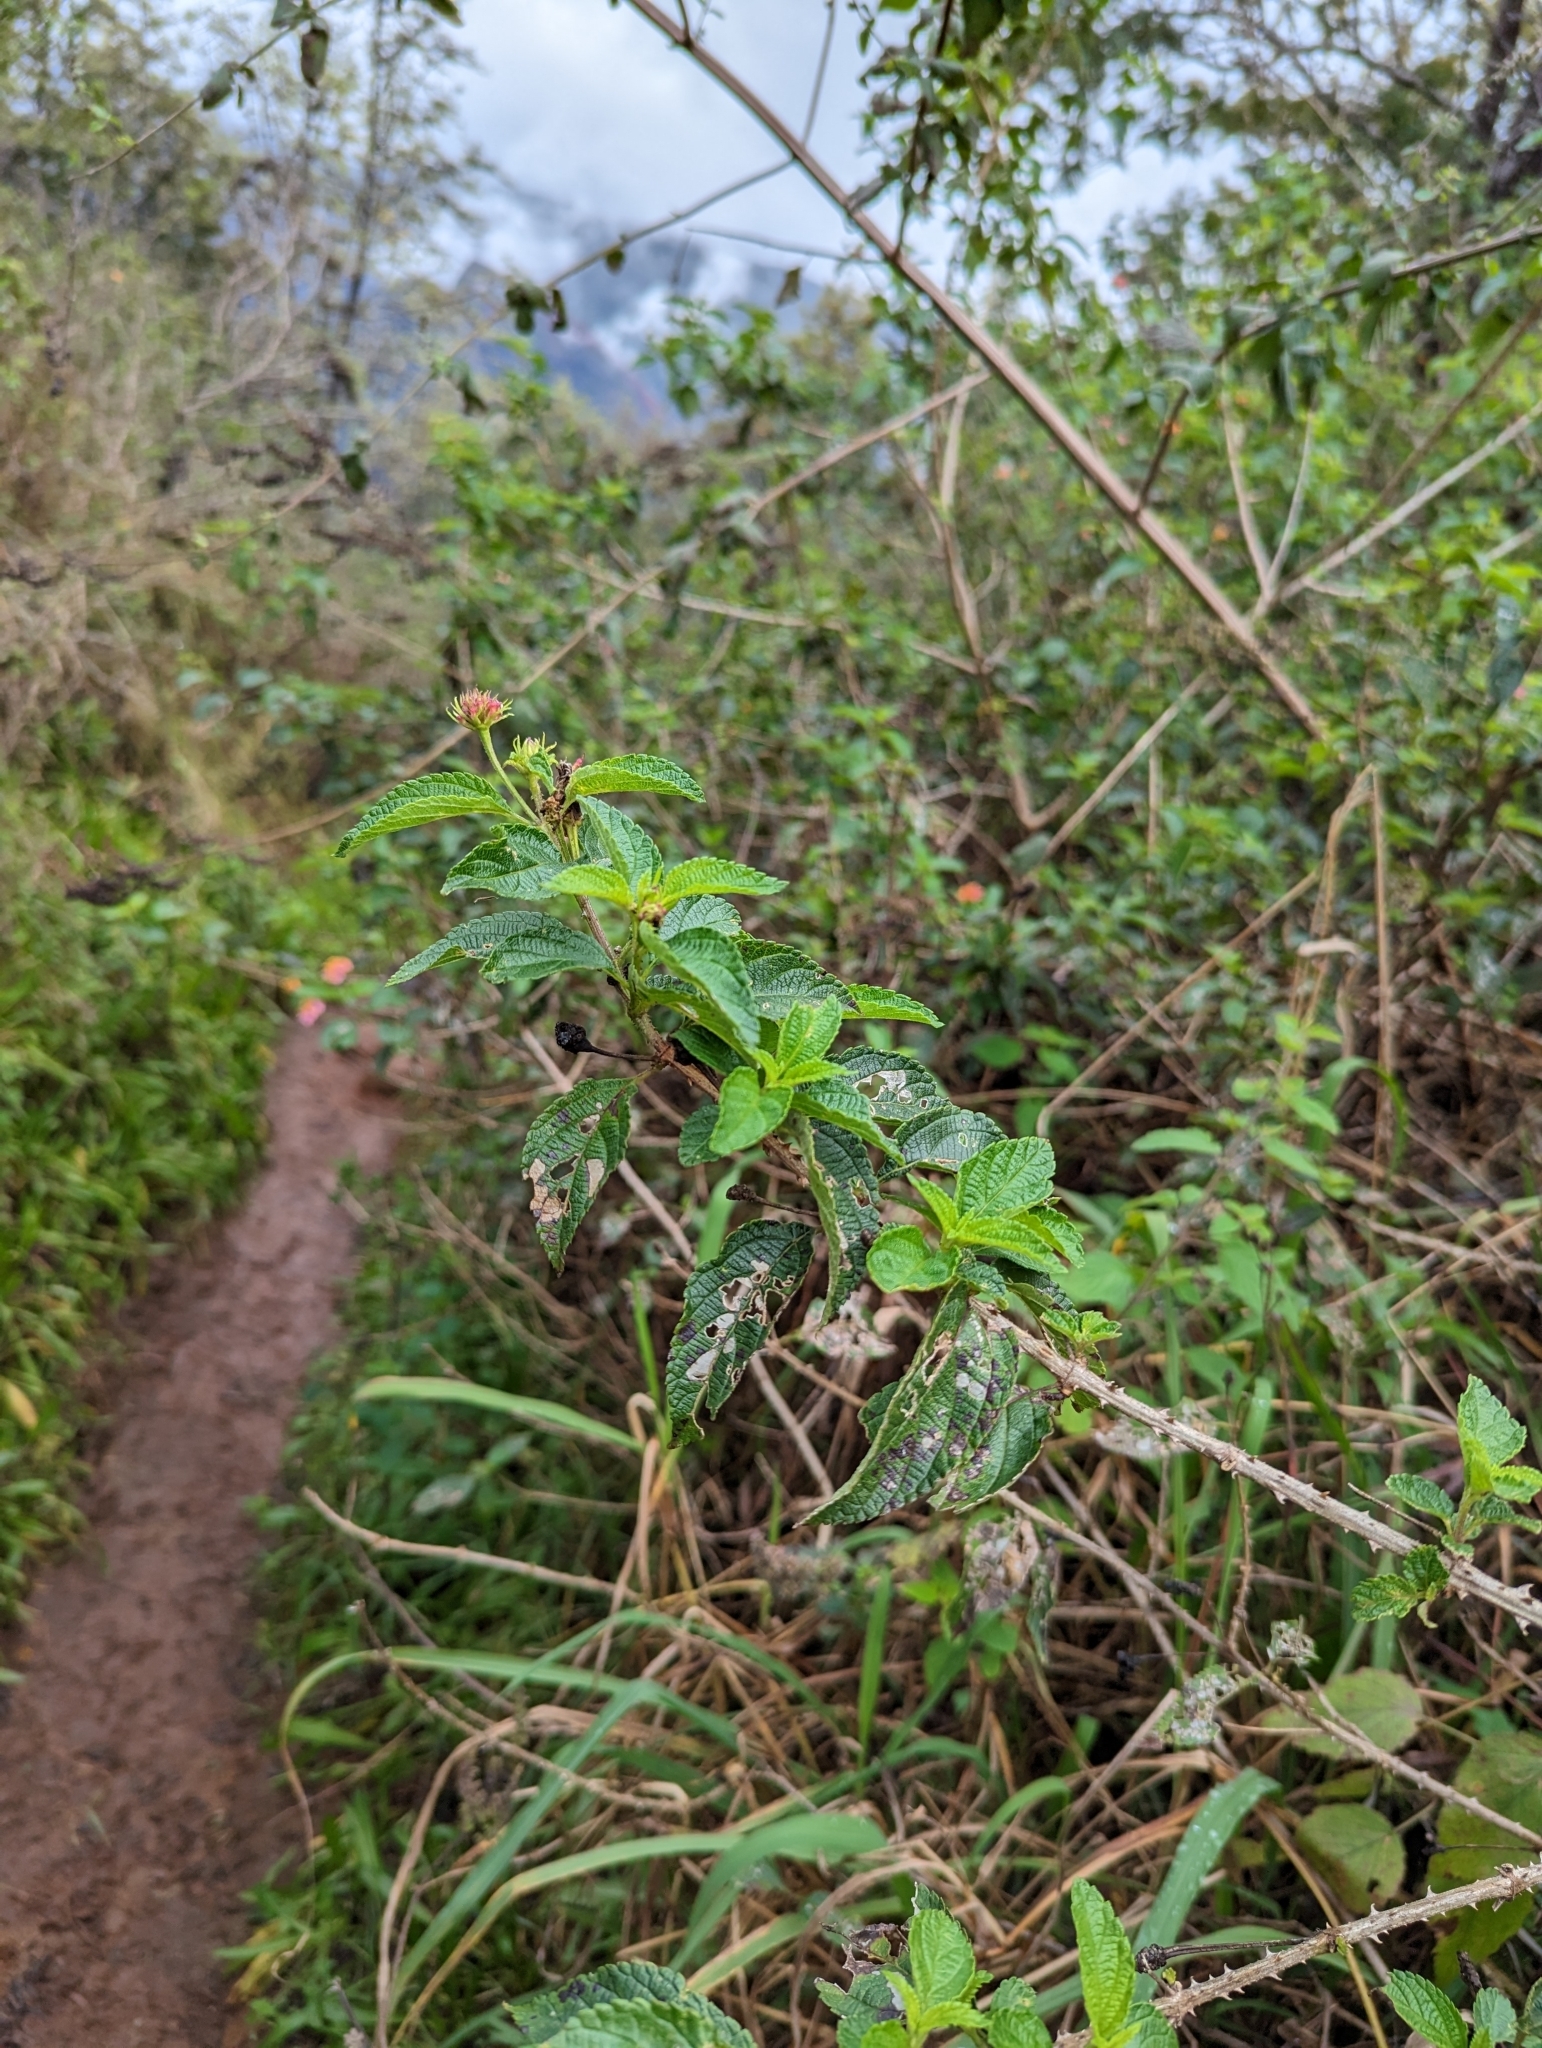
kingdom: Plantae
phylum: Tracheophyta
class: Magnoliopsida
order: Lamiales
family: Verbenaceae
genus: Lantana
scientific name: Lantana camara
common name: Lantana
